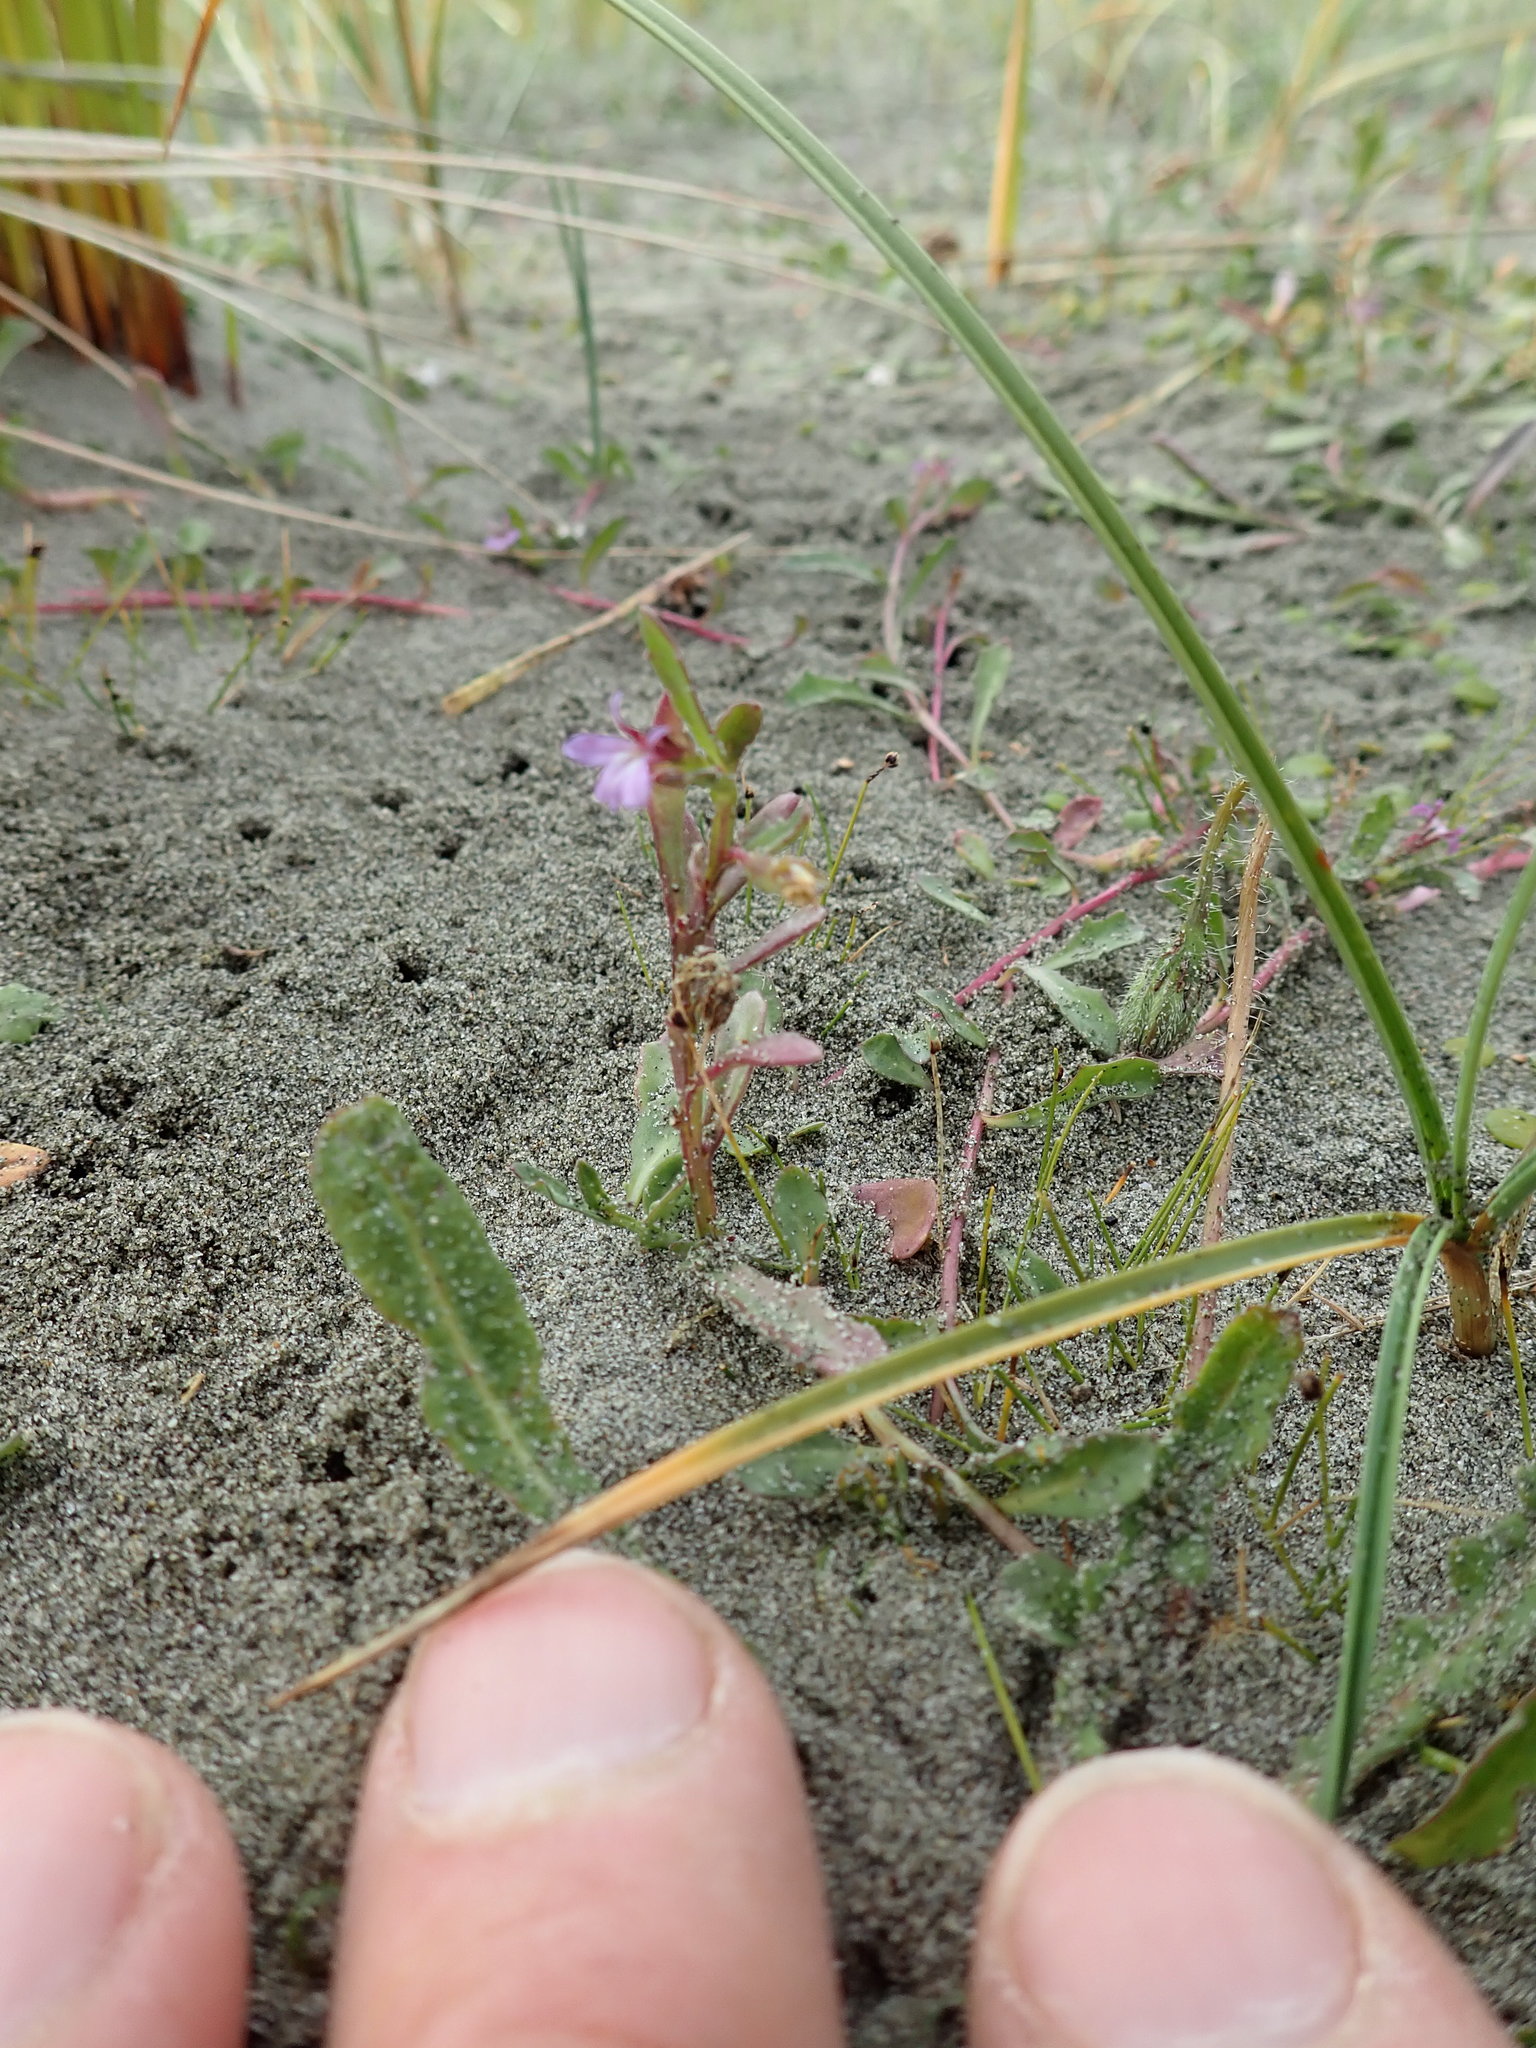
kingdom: Plantae
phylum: Tracheophyta
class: Magnoliopsida
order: Asterales
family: Campanulaceae
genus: Lobelia
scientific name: Lobelia anceps
